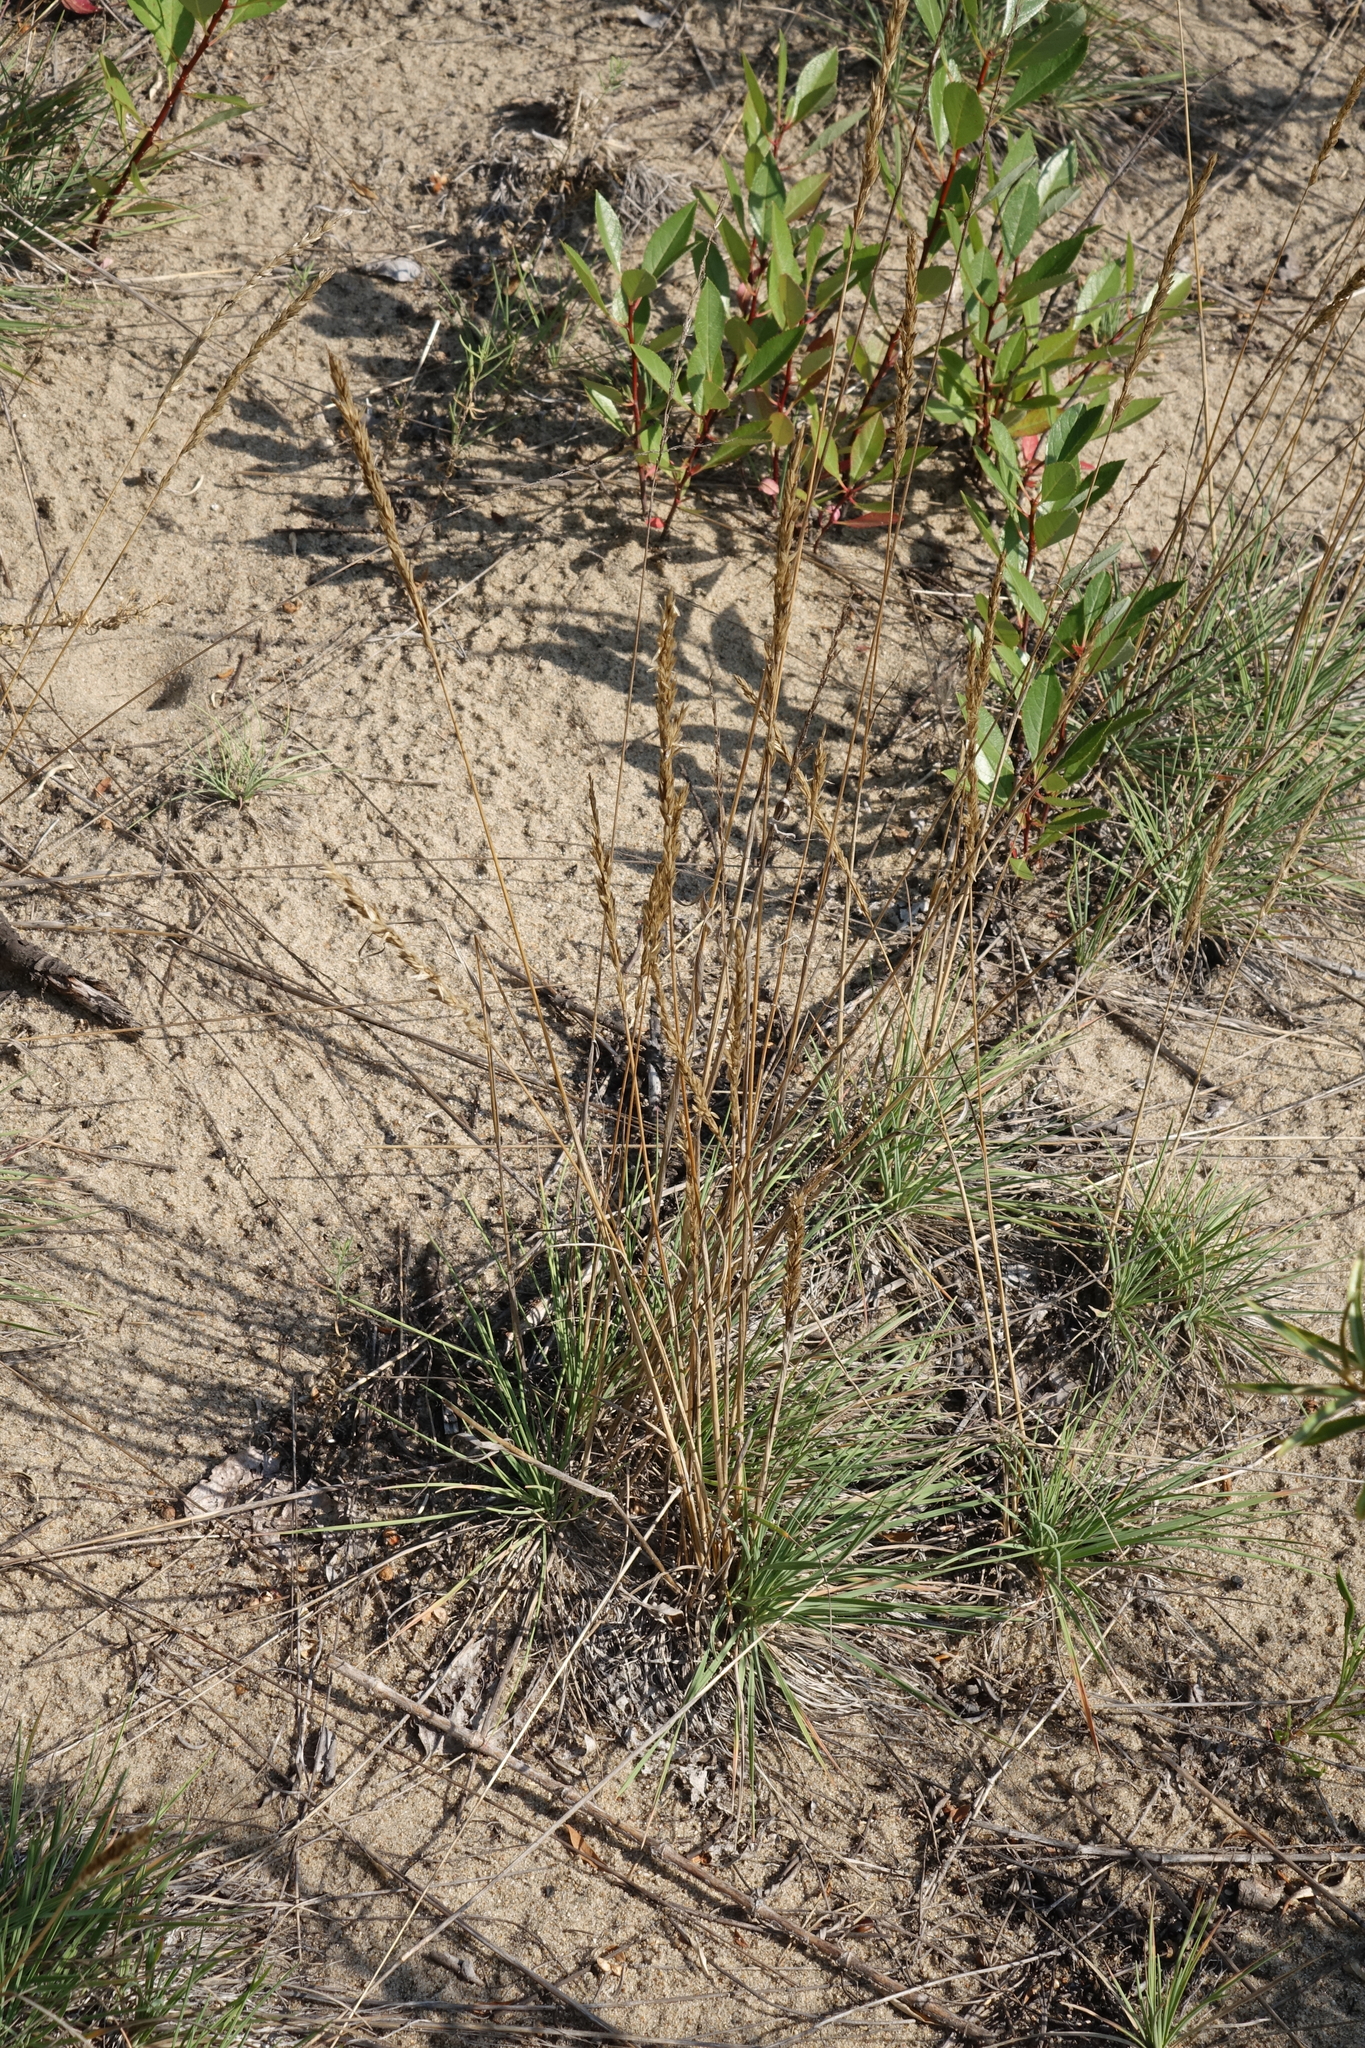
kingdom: Plantae
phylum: Tracheophyta
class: Liliopsida
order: Poales
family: Poaceae
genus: Koeleria
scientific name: Koeleria
